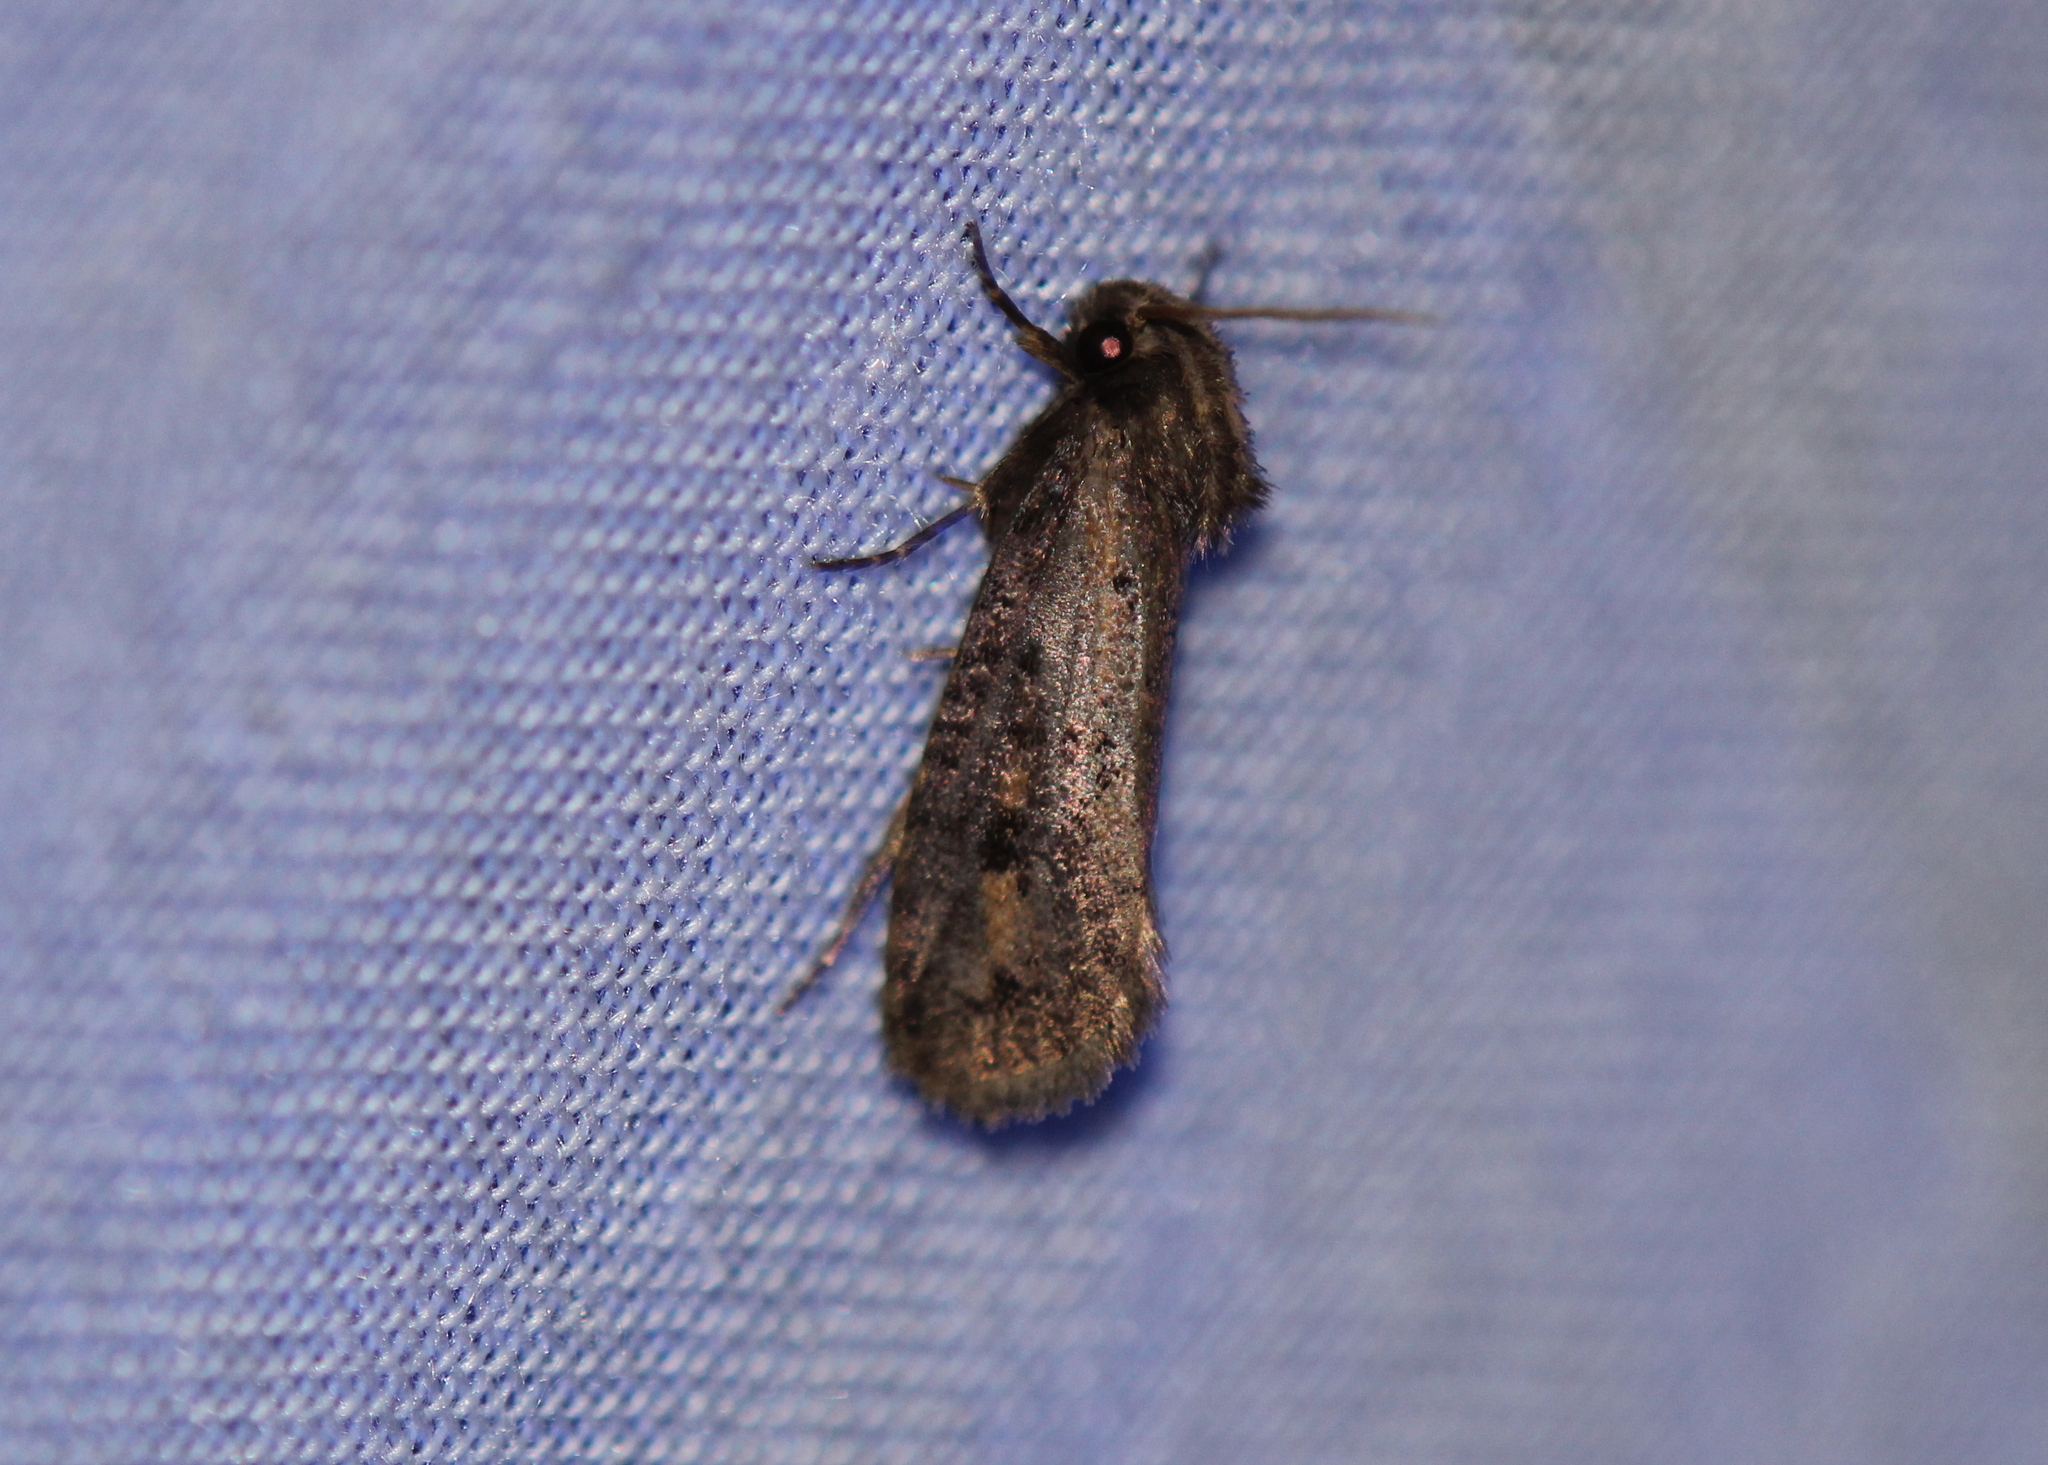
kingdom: Animalia
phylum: Arthropoda
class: Insecta
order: Lepidoptera
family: Tineidae
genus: Acrolophus
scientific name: Acrolophus popeanella
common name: Clemens' grass tubeworm moth
